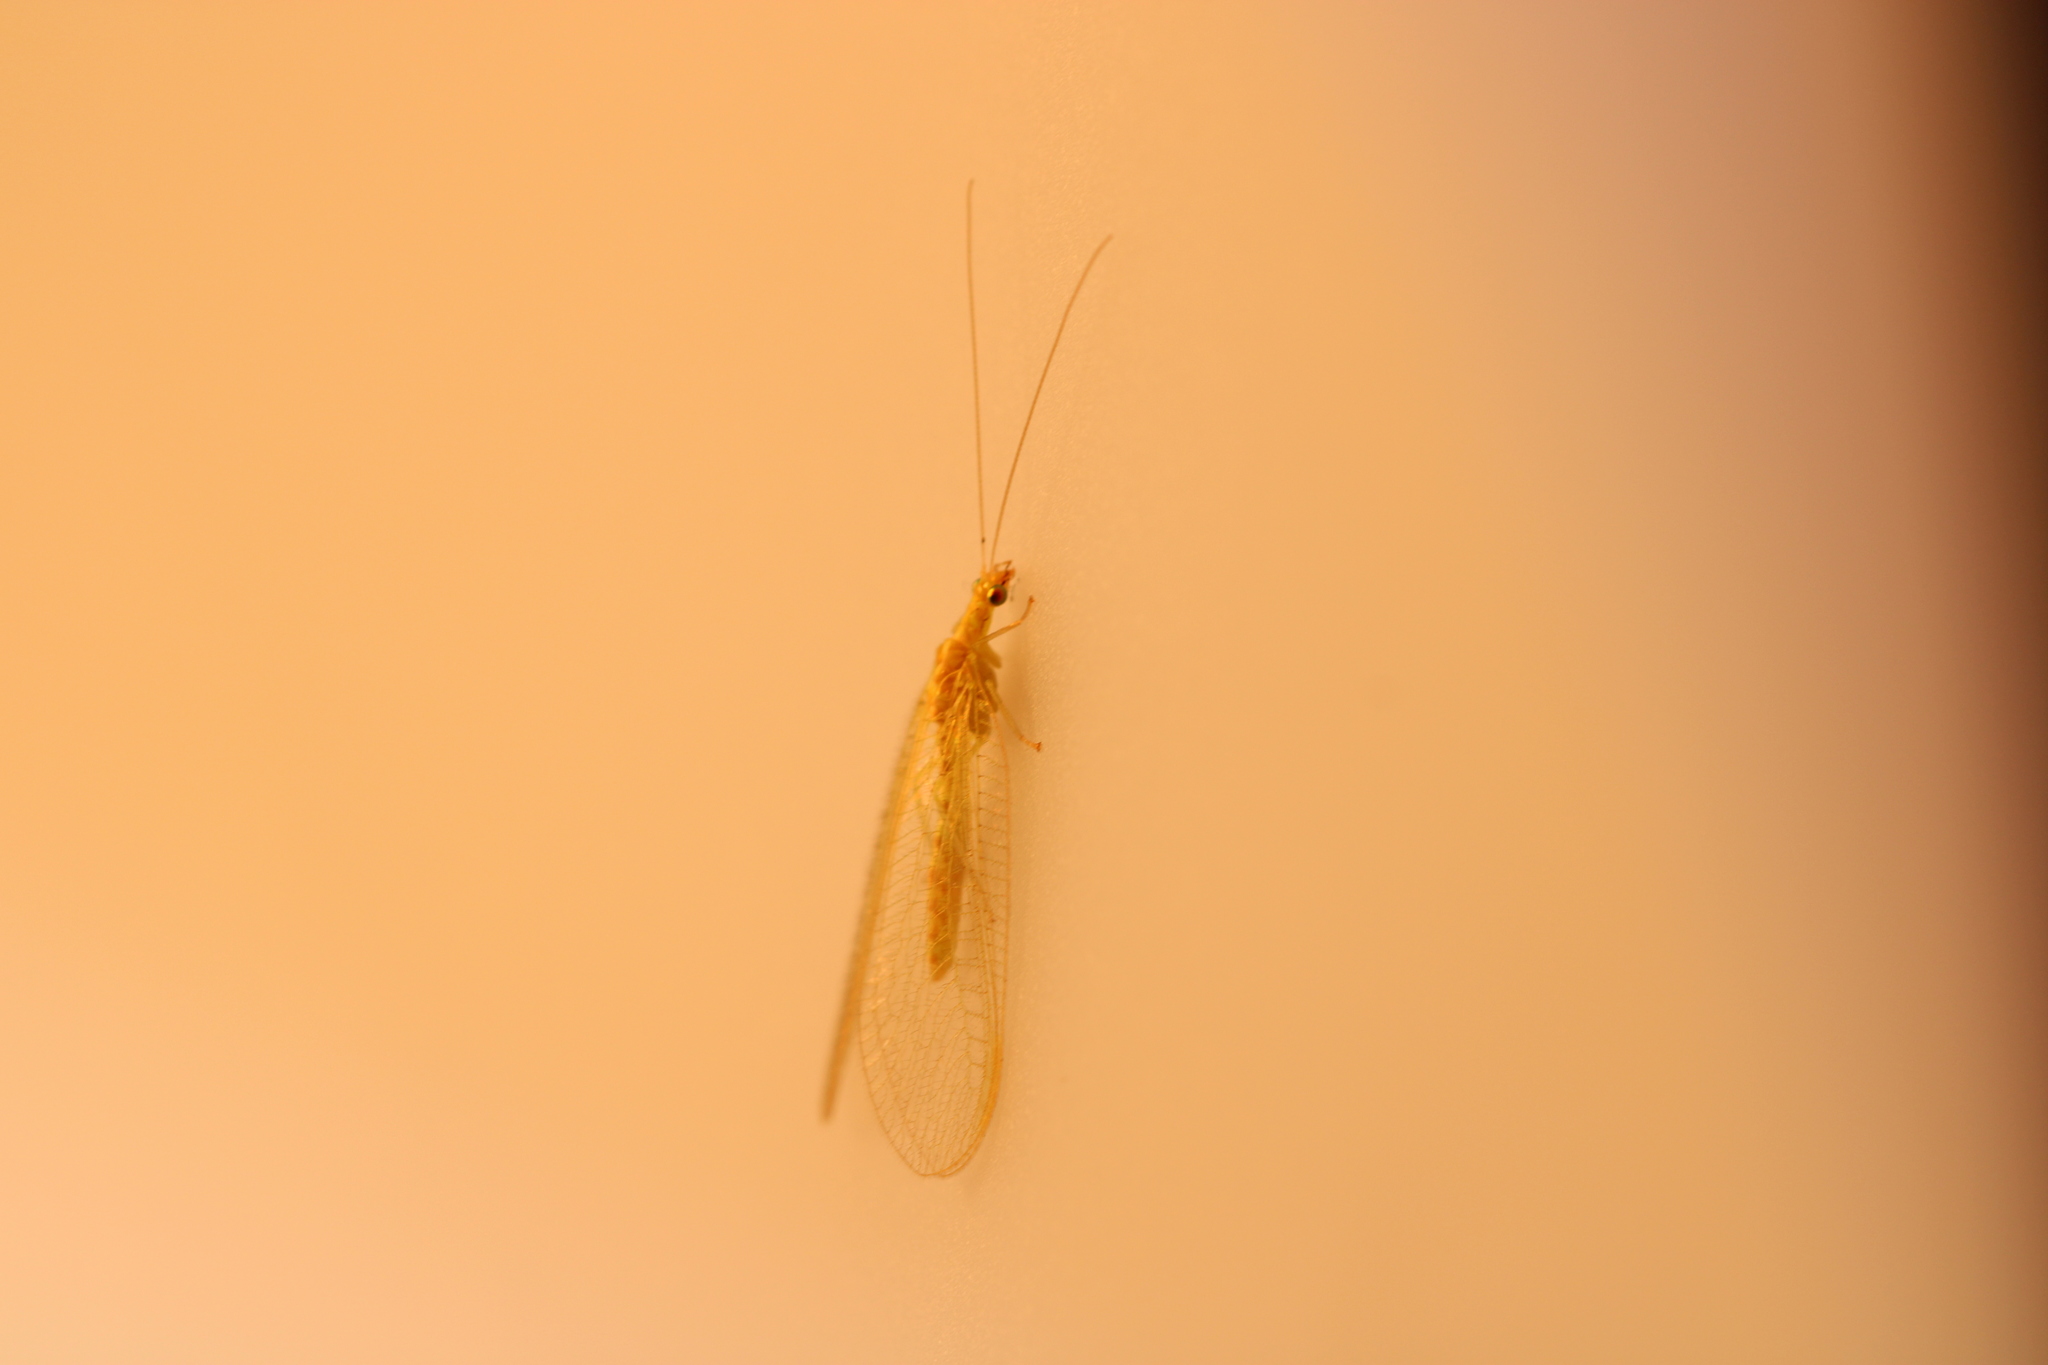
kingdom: Animalia
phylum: Arthropoda
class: Insecta
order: Neuroptera
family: Chrysopidae
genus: Chrysoperla
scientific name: Chrysoperla
